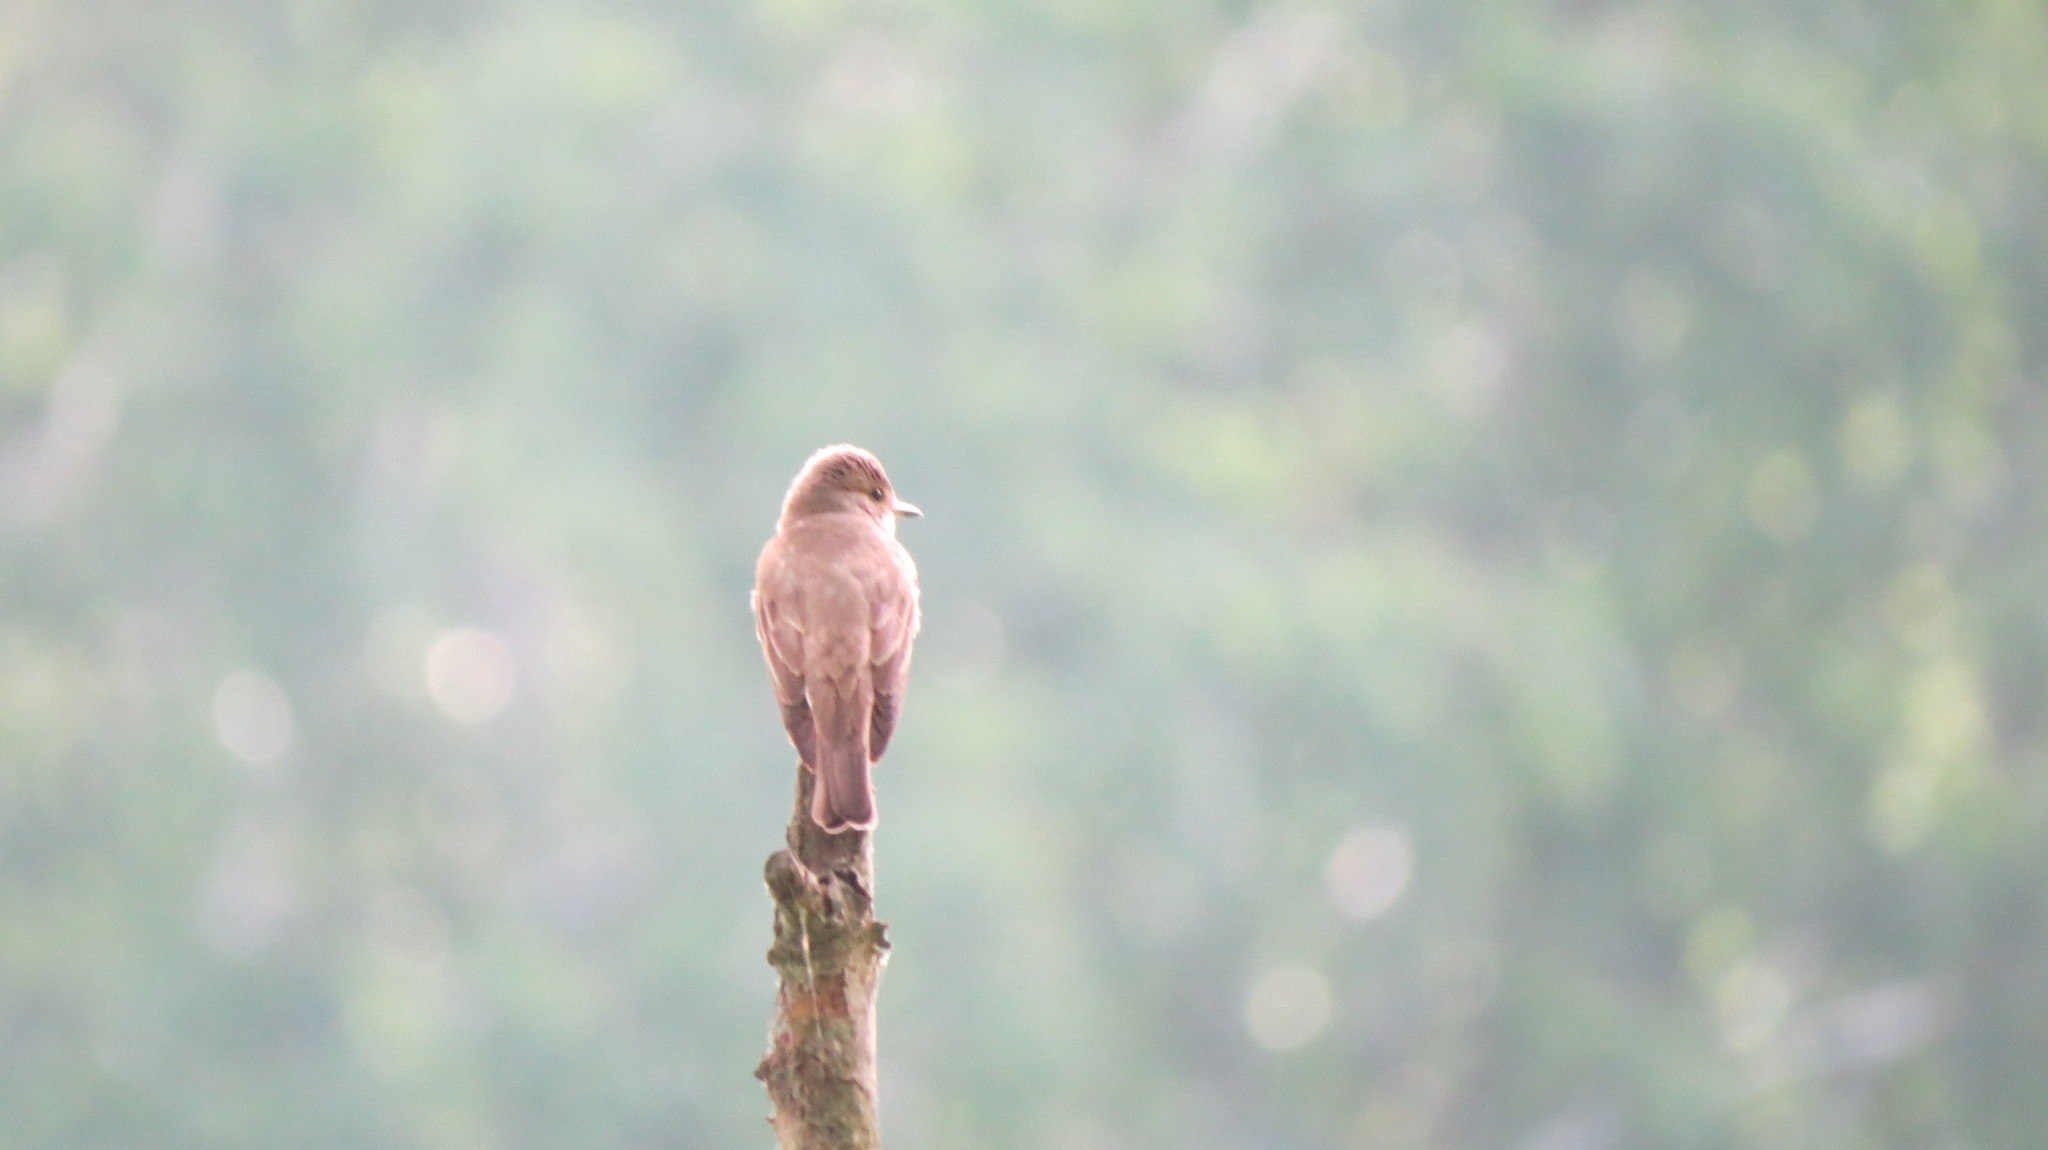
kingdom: Animalia
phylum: Chordata
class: Aves
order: Passeriformes
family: Muscicapidae
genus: Muscicapa
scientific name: Muscicapa striata
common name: Spotted flycatcher
